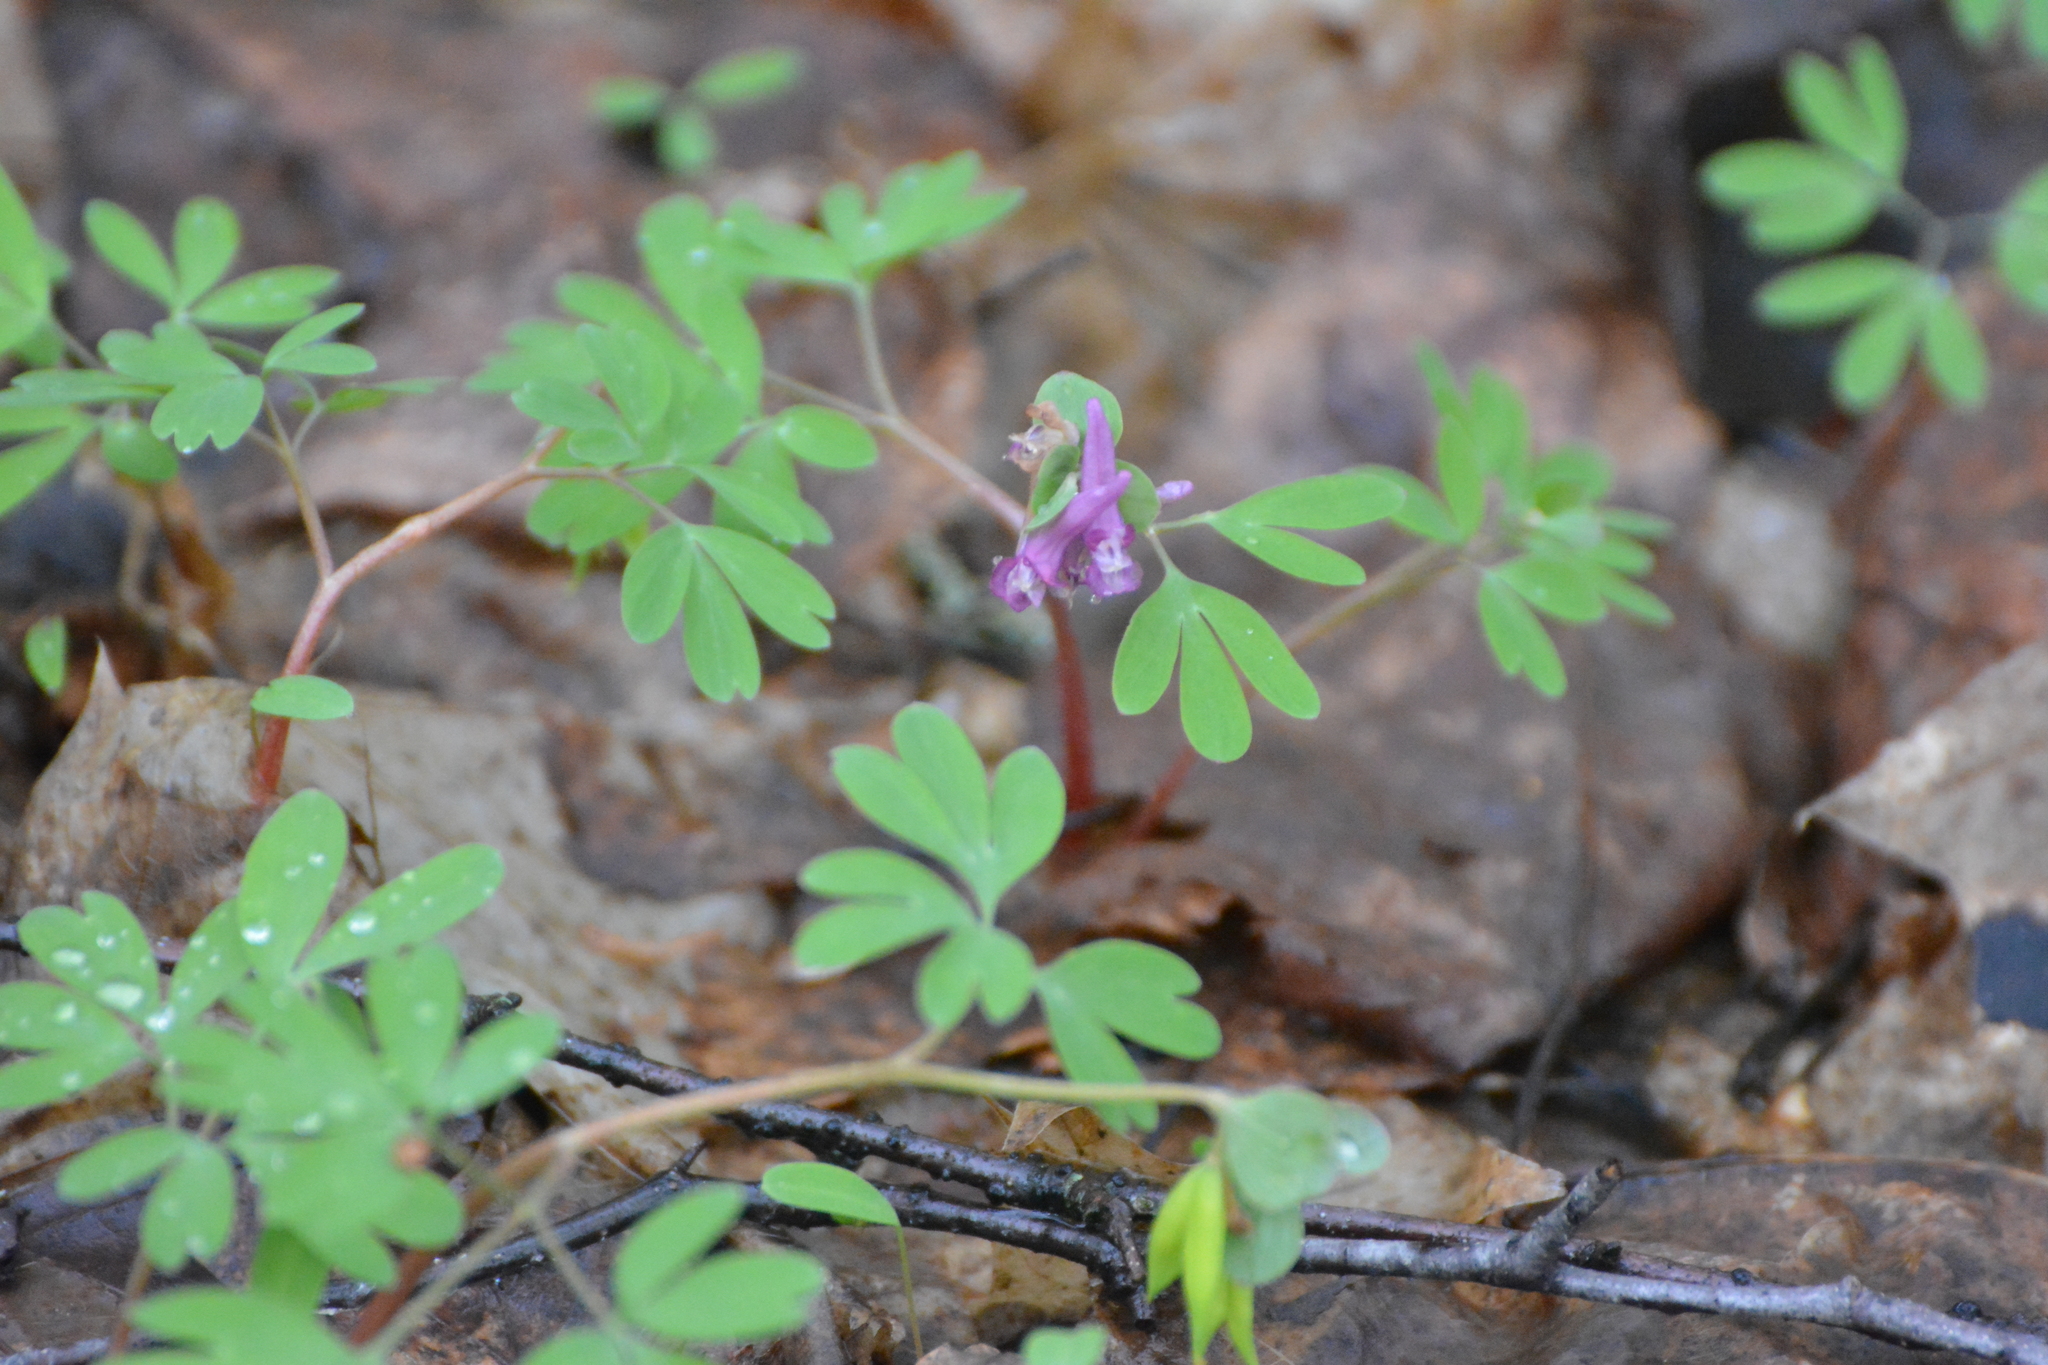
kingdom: Plantae
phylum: Tracheophyta
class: Magnoliopsida
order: Ranunculales
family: Papaveraceae
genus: Corydalis
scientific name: Corydalis intermedia
